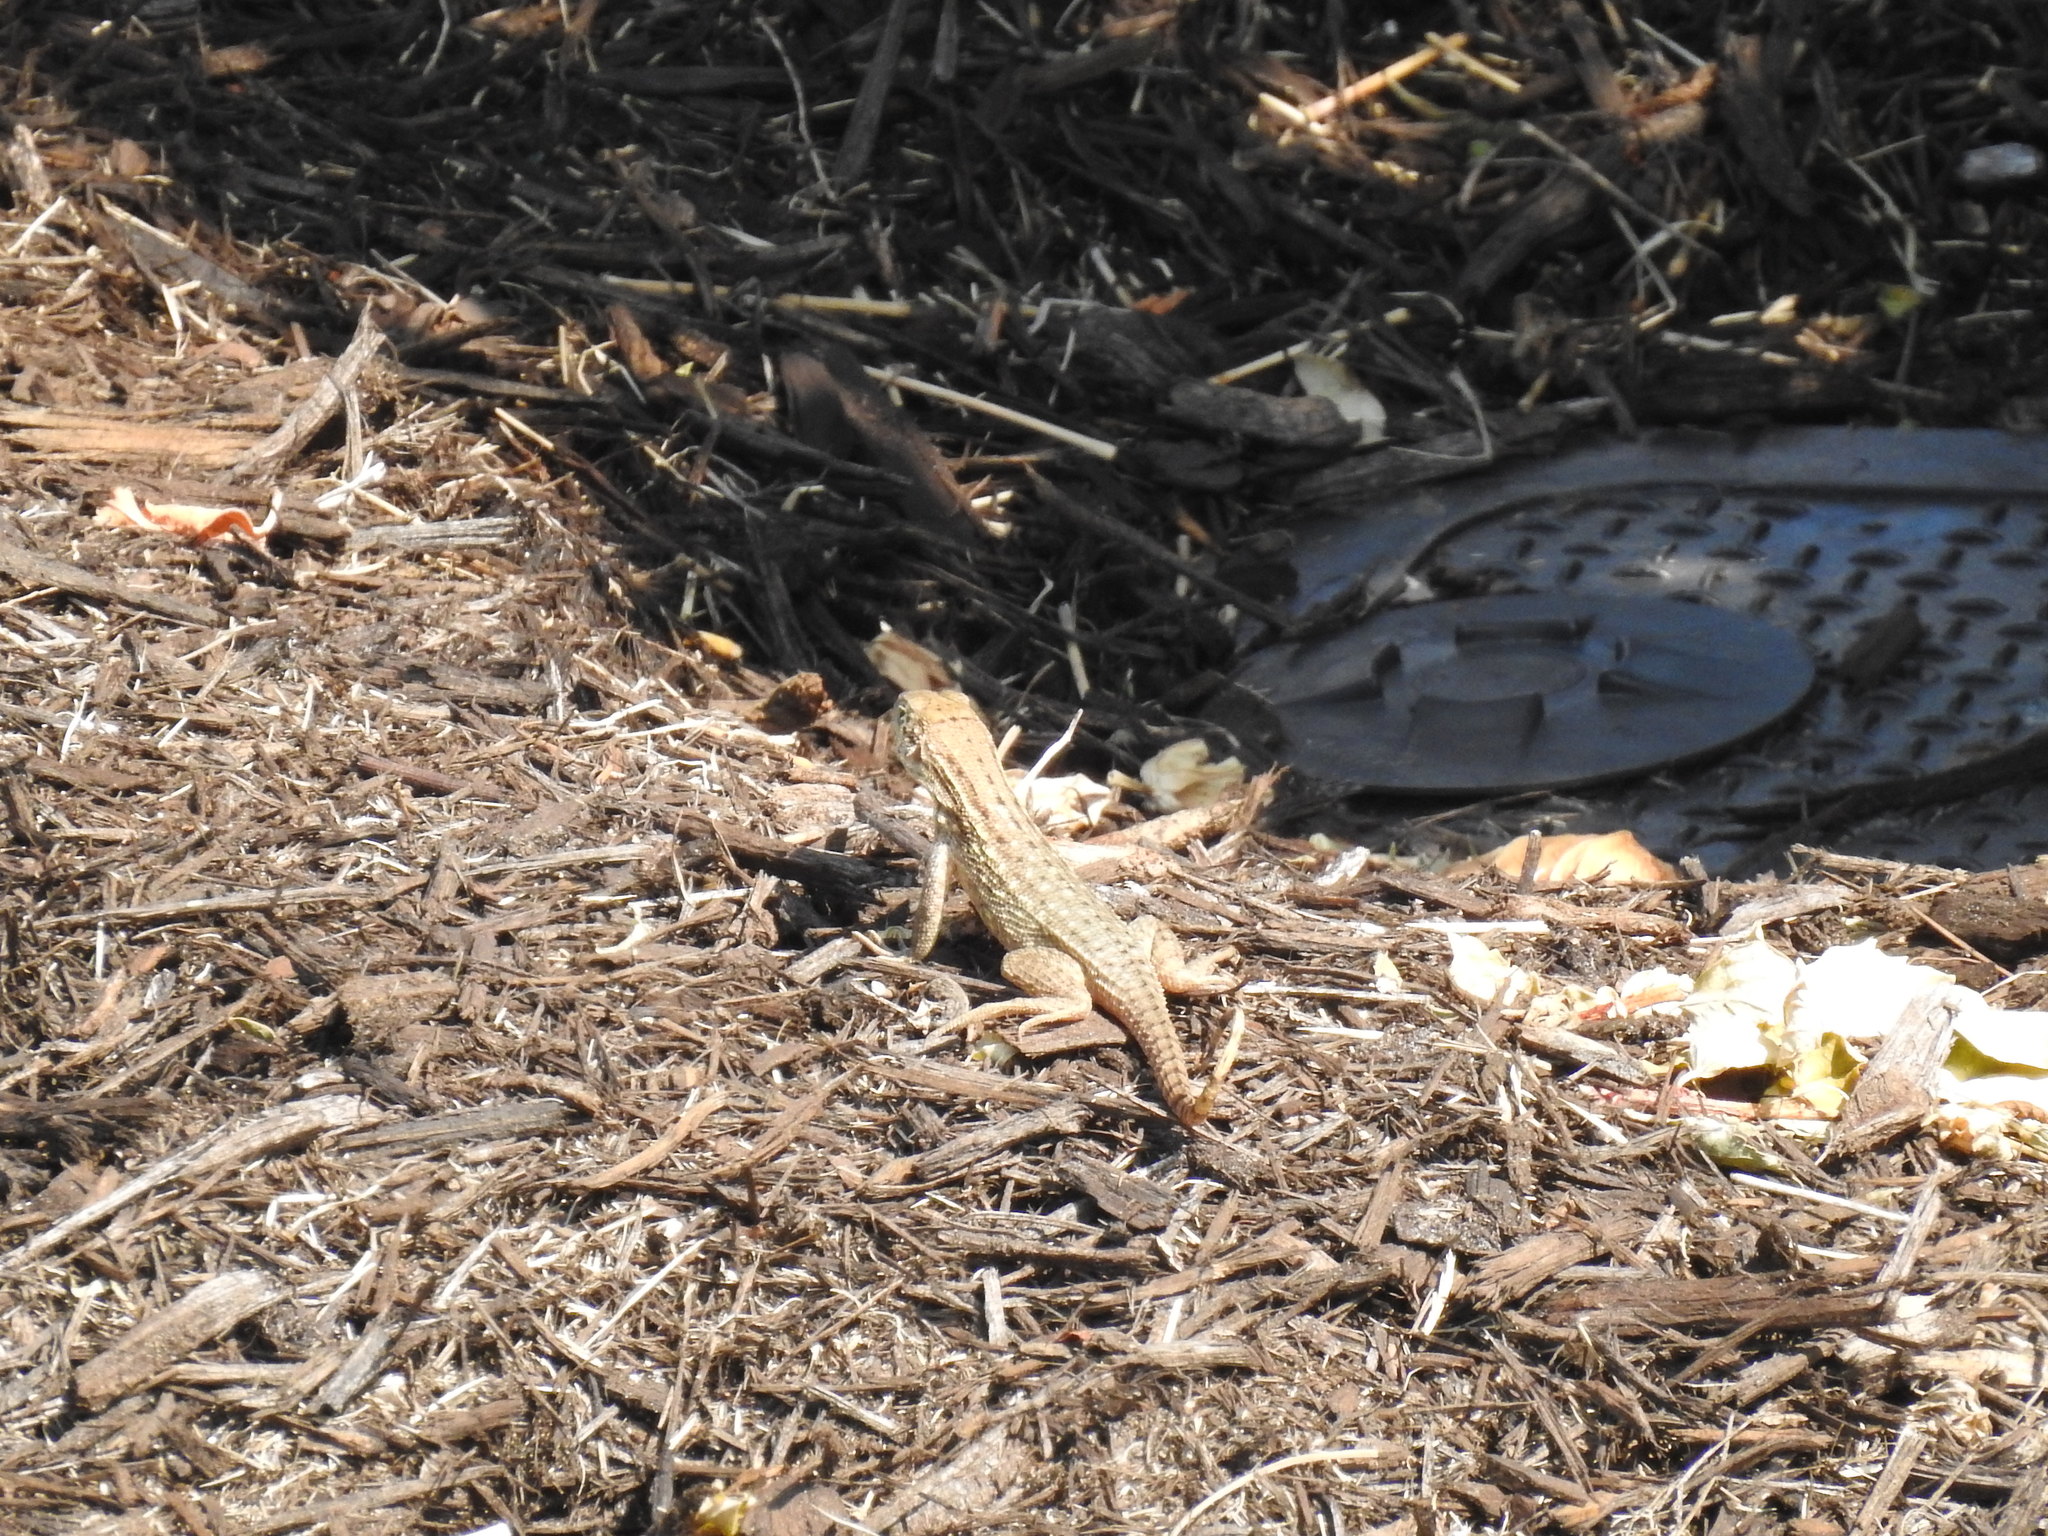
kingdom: Animalia
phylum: Chordata
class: Squamata
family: Leiocephalidae
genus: Leiocephalus
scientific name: Leiocephalus carinatus
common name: Northern curly-tailed lizard
